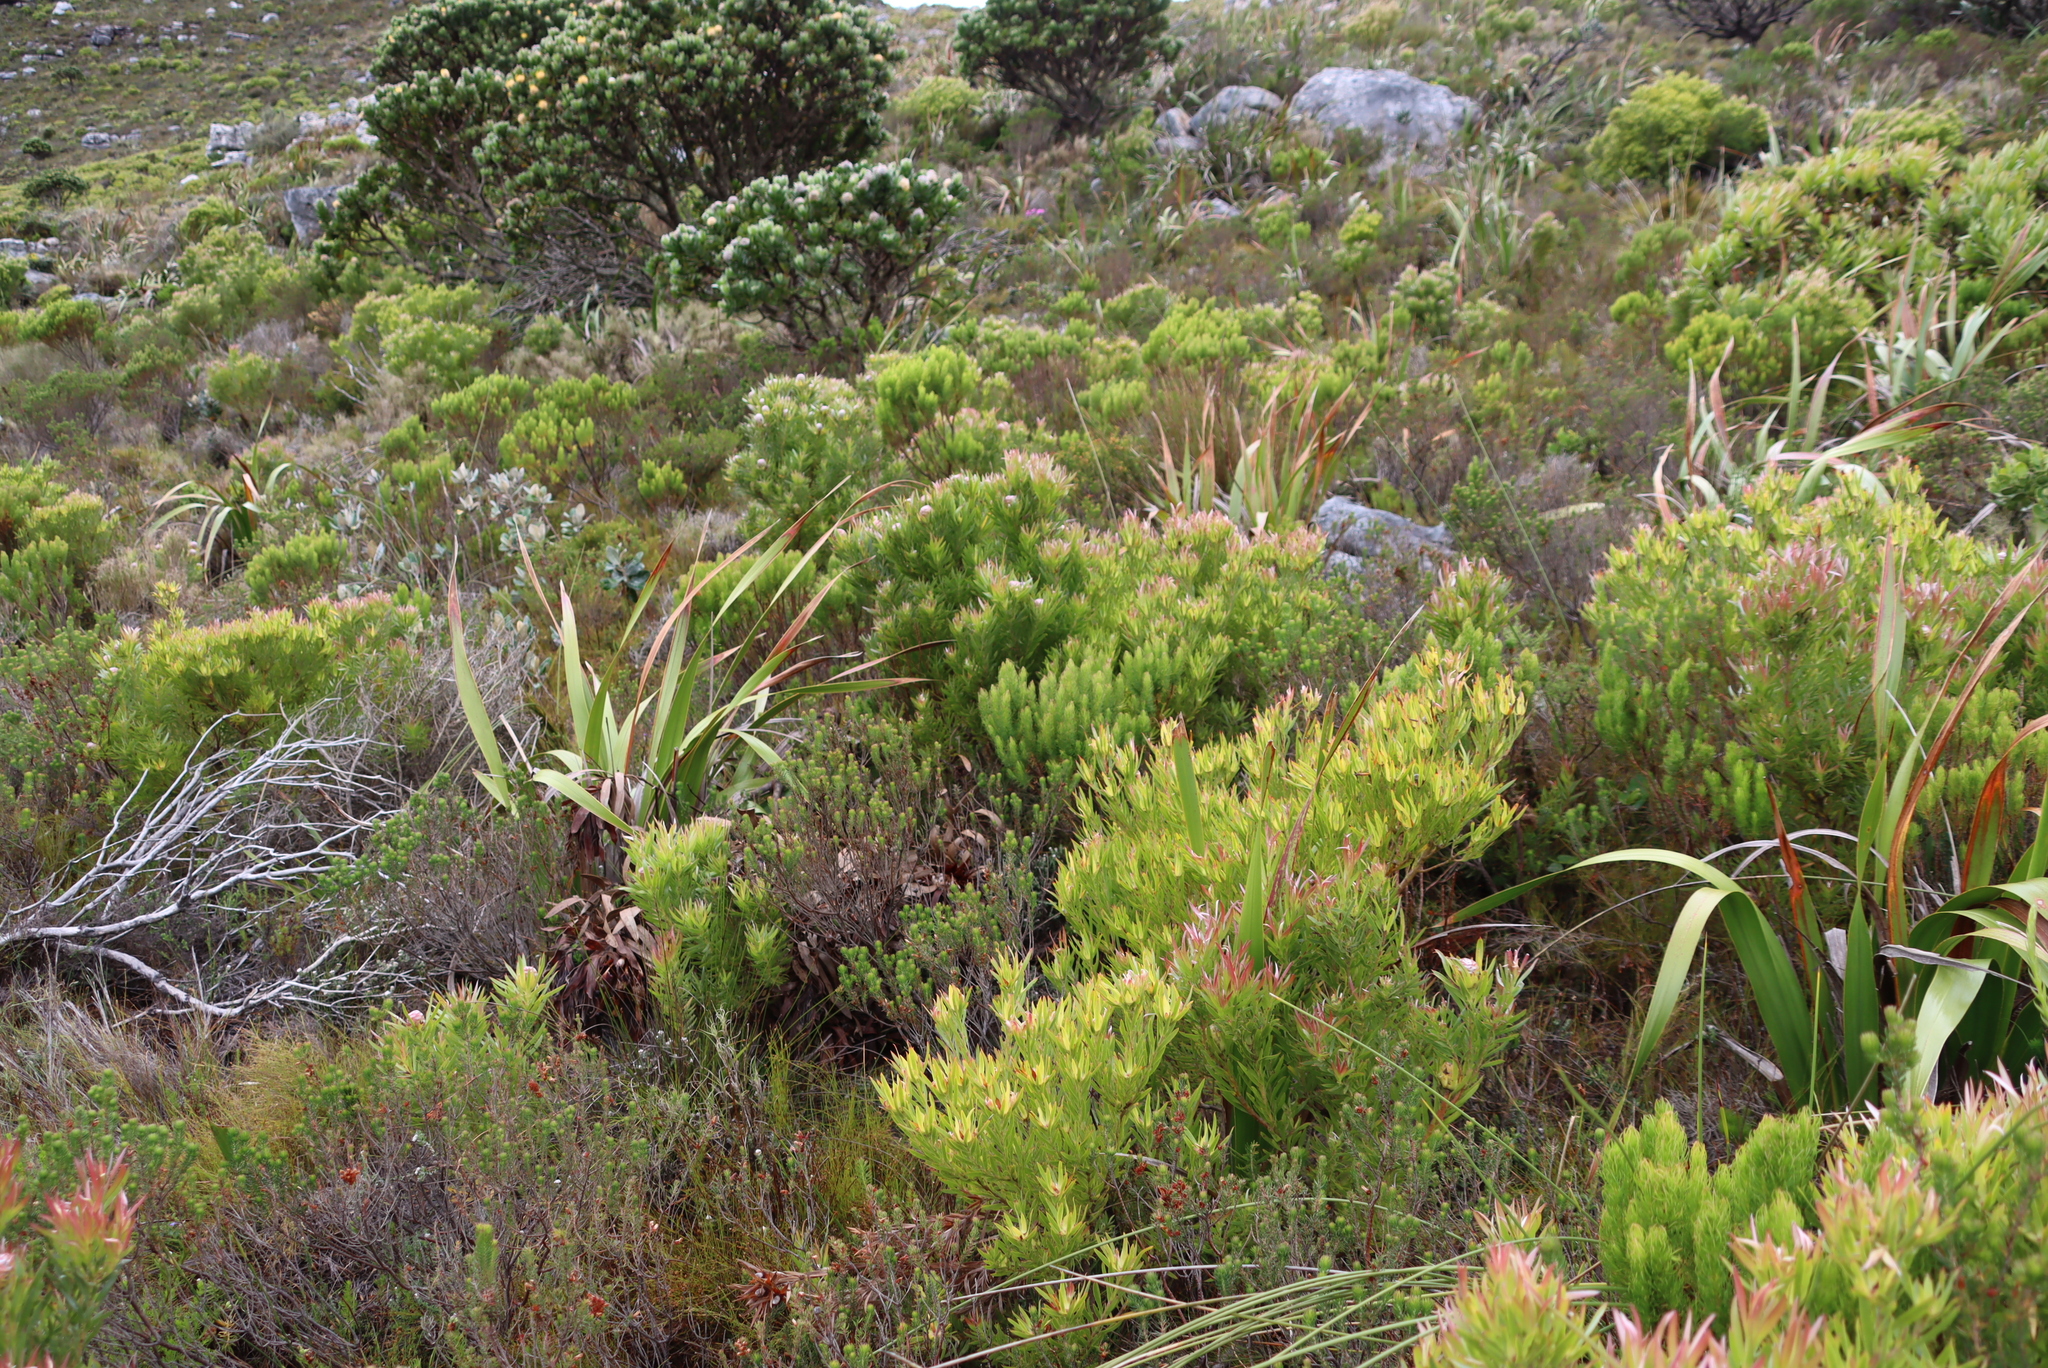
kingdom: Plantae
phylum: Tracheophyta
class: Magnoliopsida
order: Proteales
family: Proteaceae
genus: Leucadendron
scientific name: Leucadendron xanthoconus
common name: Sickle-leaf conebush
